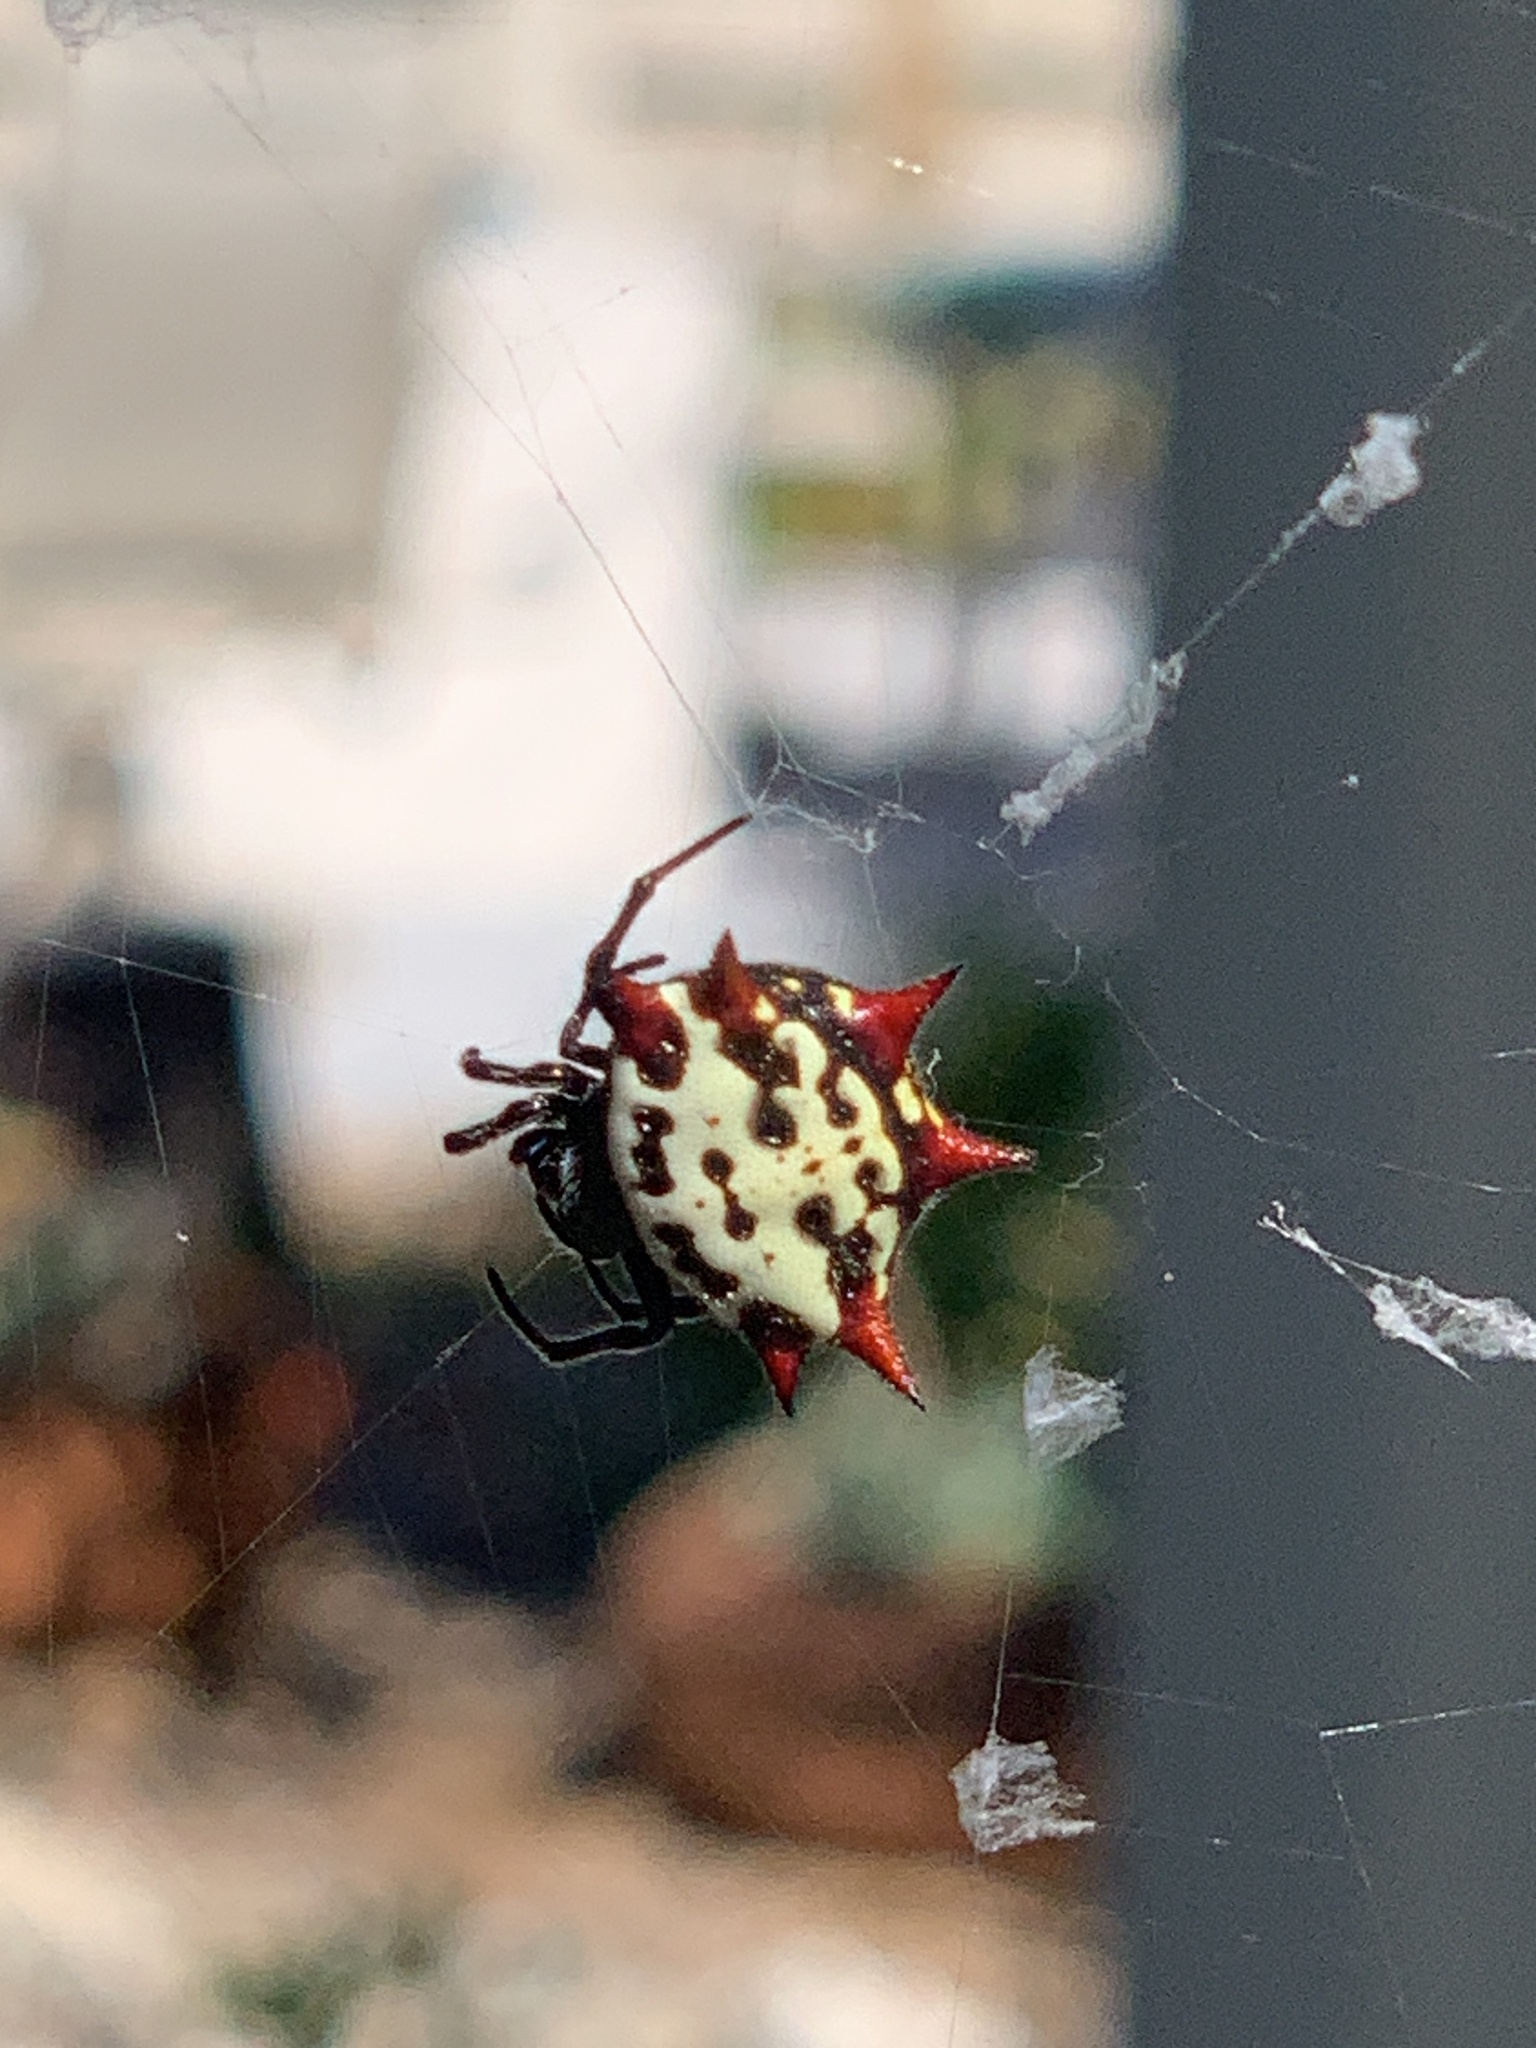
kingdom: Animalia
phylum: Arthropoda
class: Arachnida
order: Araneae
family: Araneidae
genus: Gasteracantha
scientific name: Gasteracantha cancriformis
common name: Orb weavers
